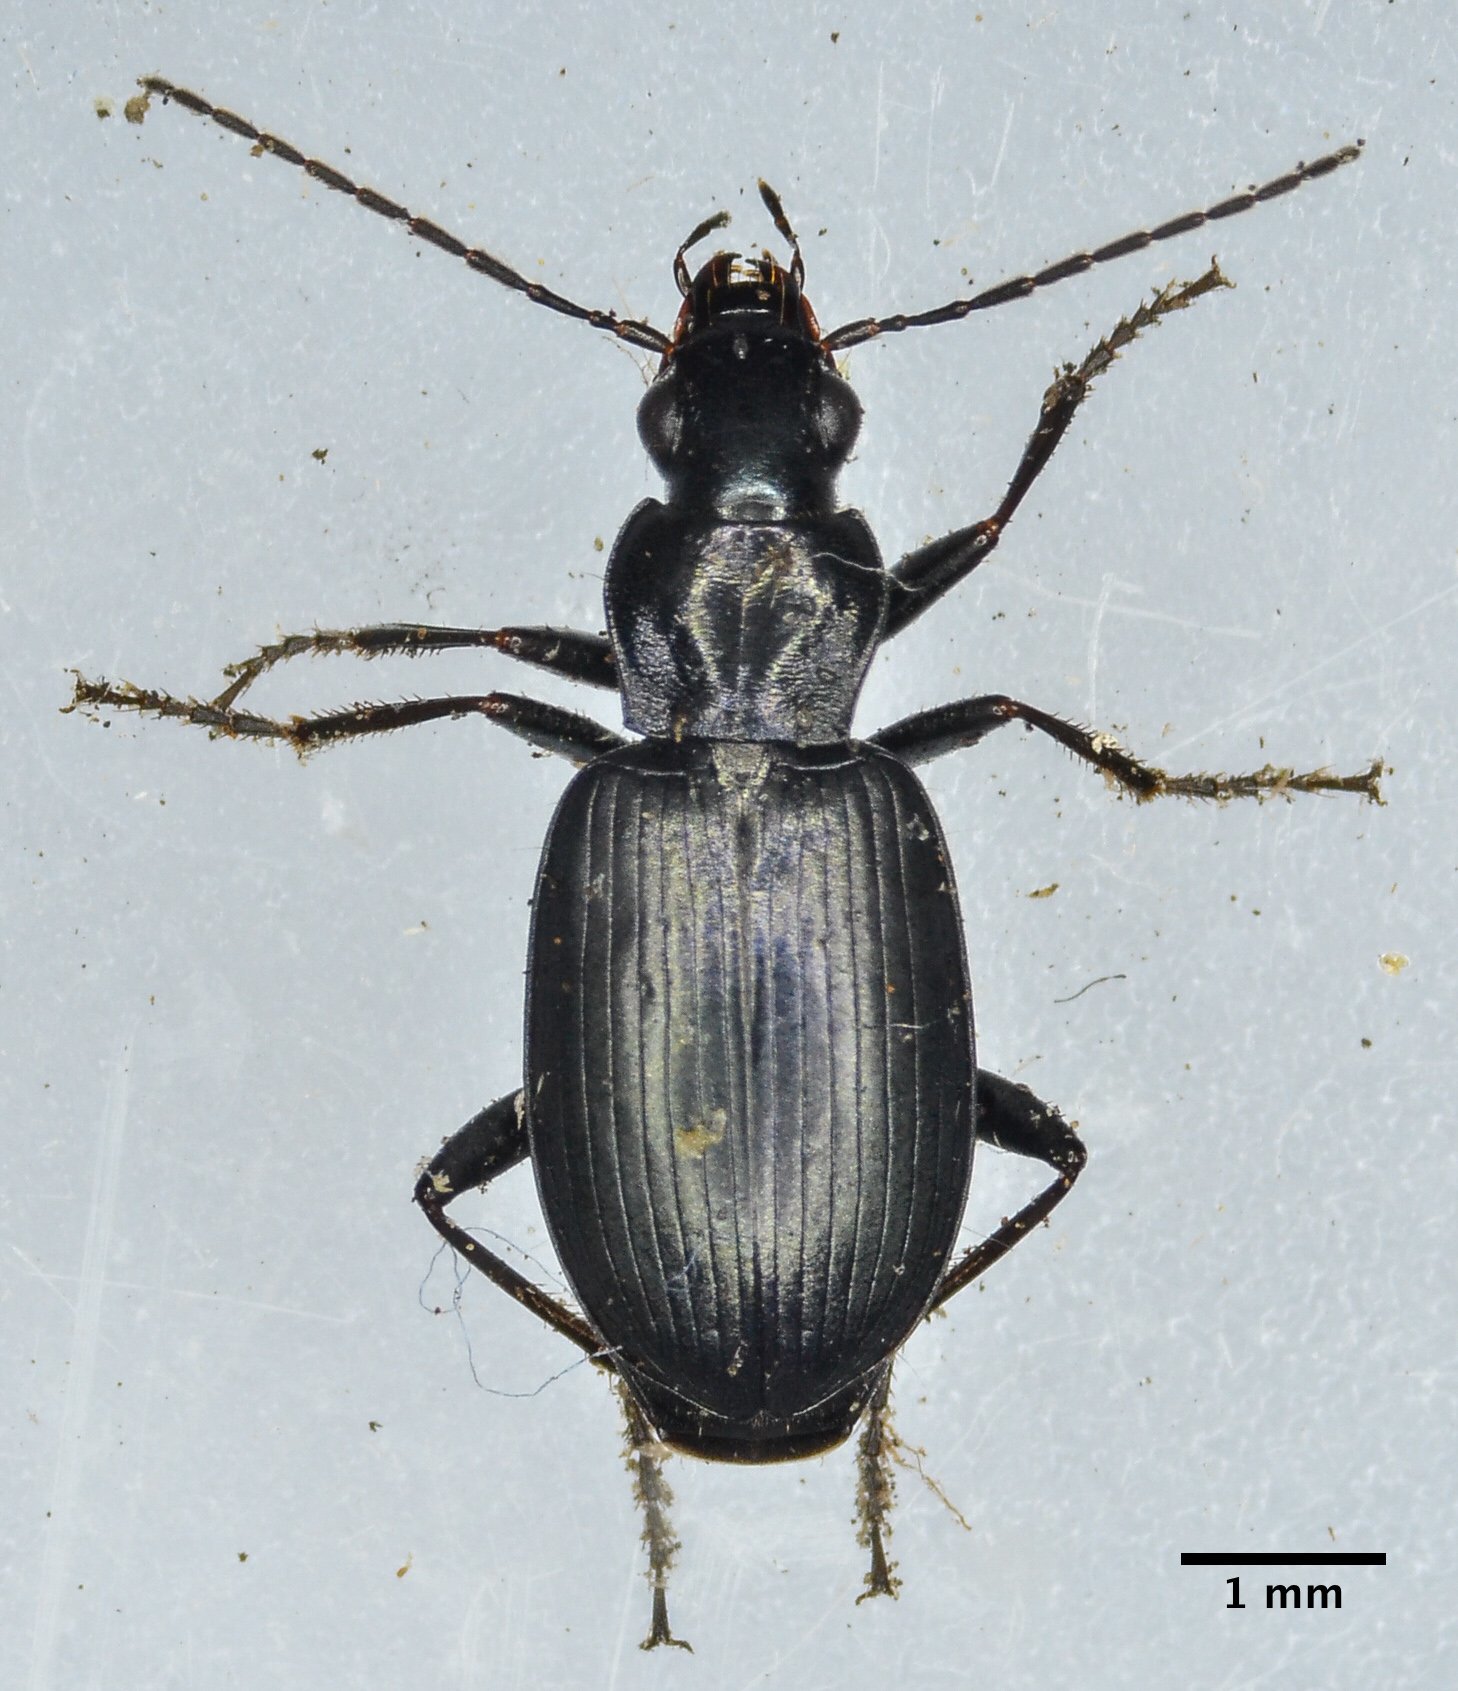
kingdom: Animalia
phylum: Arthropoda
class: Insecta
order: Coleoptera
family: Carabidae
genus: Anchomenus
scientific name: Anchomenus funebris
